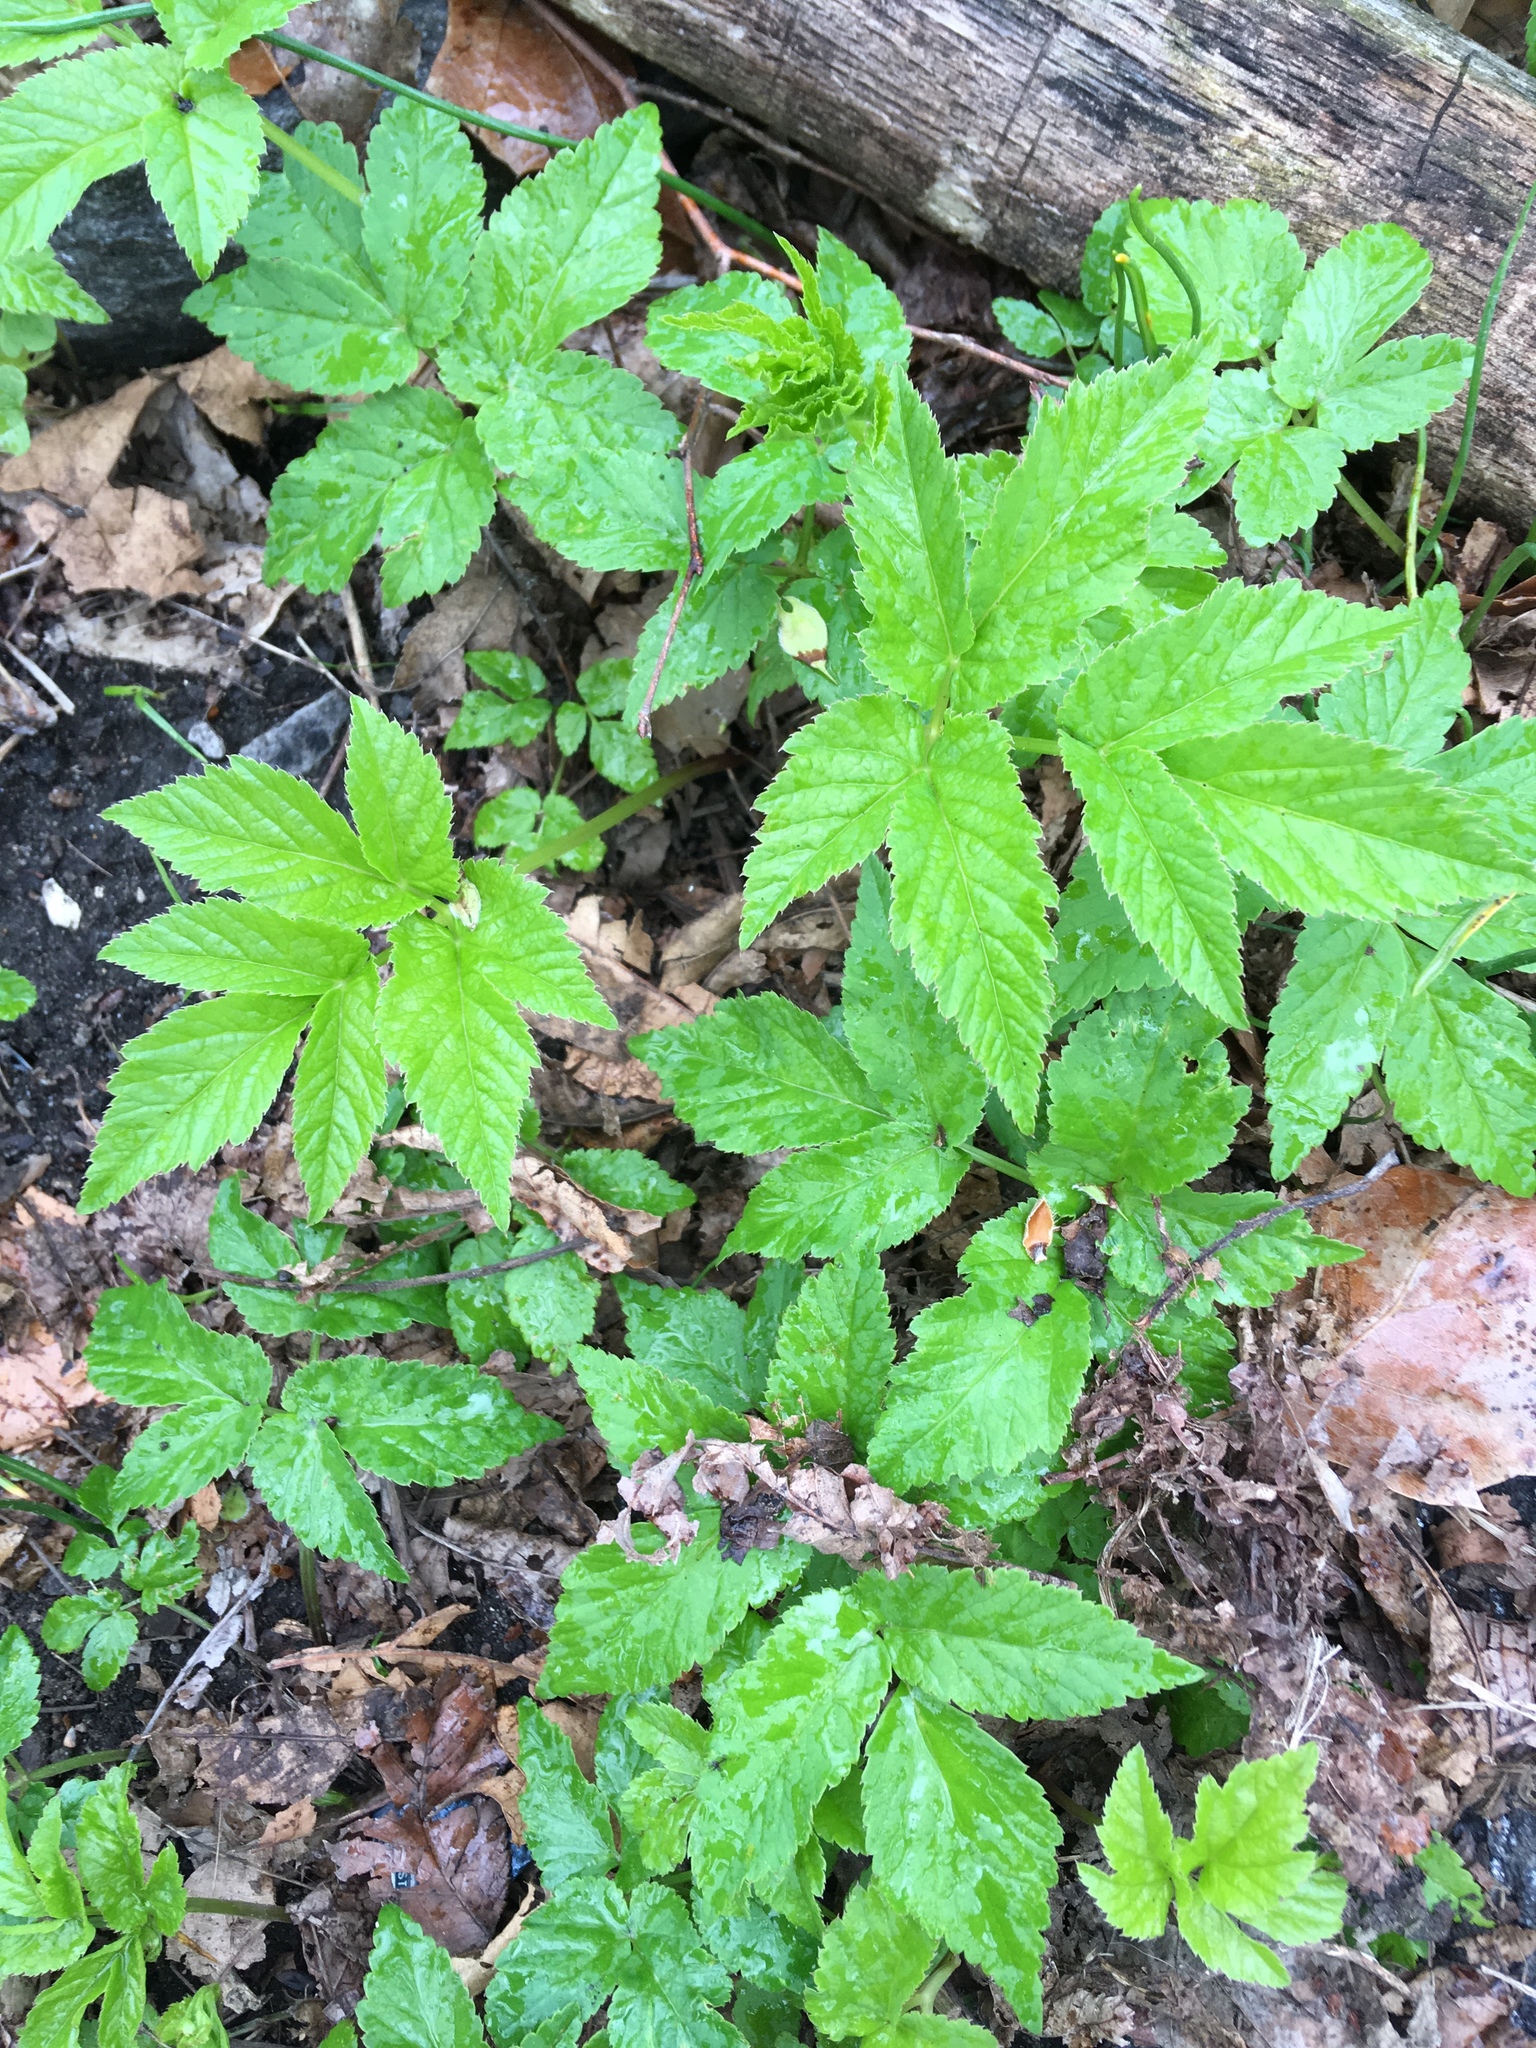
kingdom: Plantae
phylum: Tracheophyta
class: Magnoliopsida
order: Apiales
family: Apiaceae
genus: Aegopodium
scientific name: Aegopodium podagraria
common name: Ground-elder
